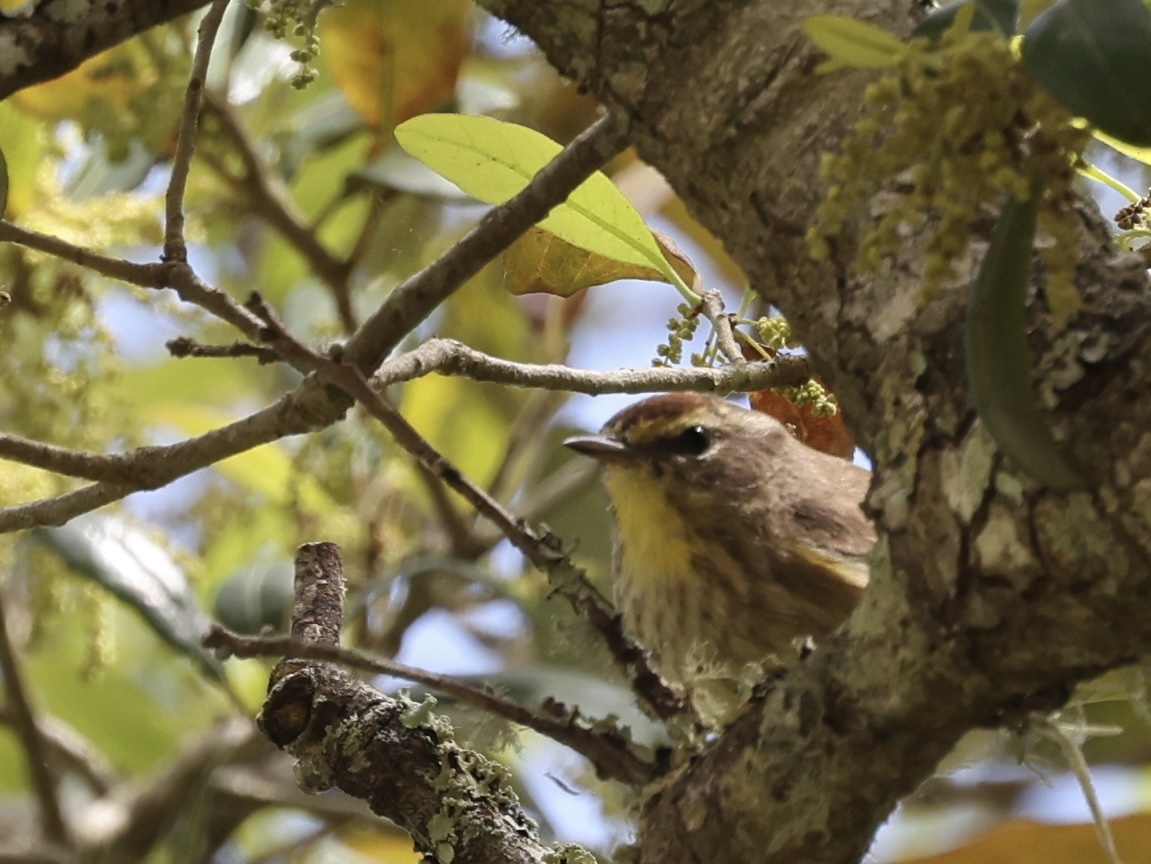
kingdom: Animalia
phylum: Chordata
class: Aves
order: Passeriformes
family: Parulidae
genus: Setophaga
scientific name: Setophaga palmarum
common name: Palm warbler
